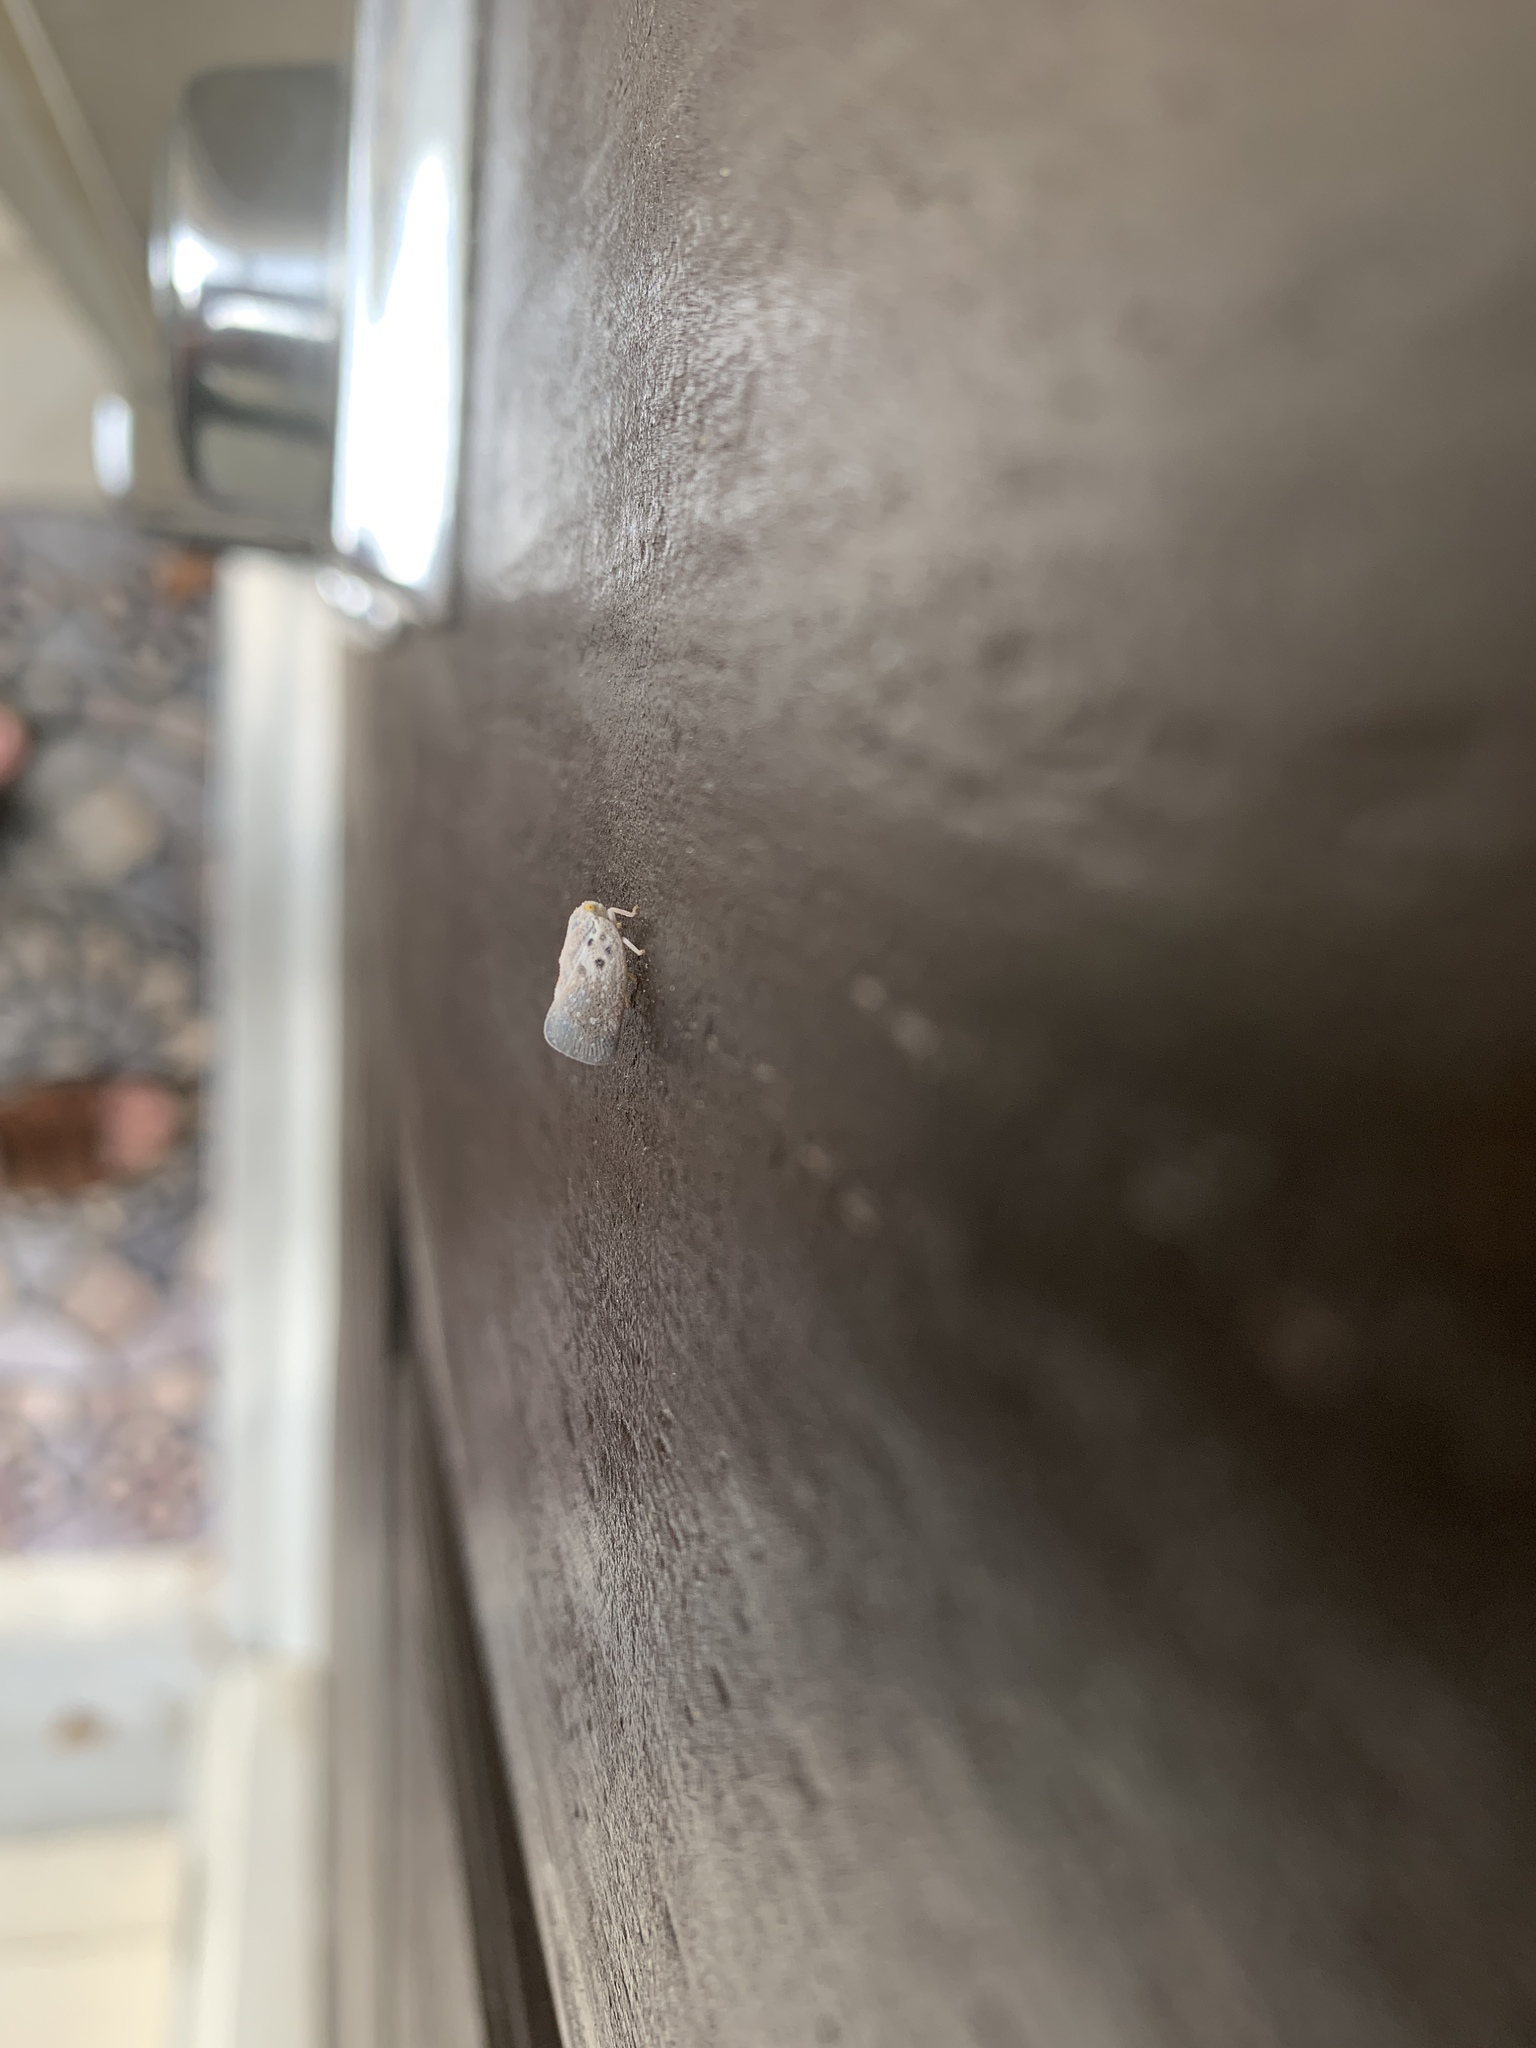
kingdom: Animalia
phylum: Arthropoda
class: Insecta
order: Hemiptera
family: Flatidae
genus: Metcalfa
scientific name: Metcalfa pruinosa
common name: Citrus flatid planthopper
